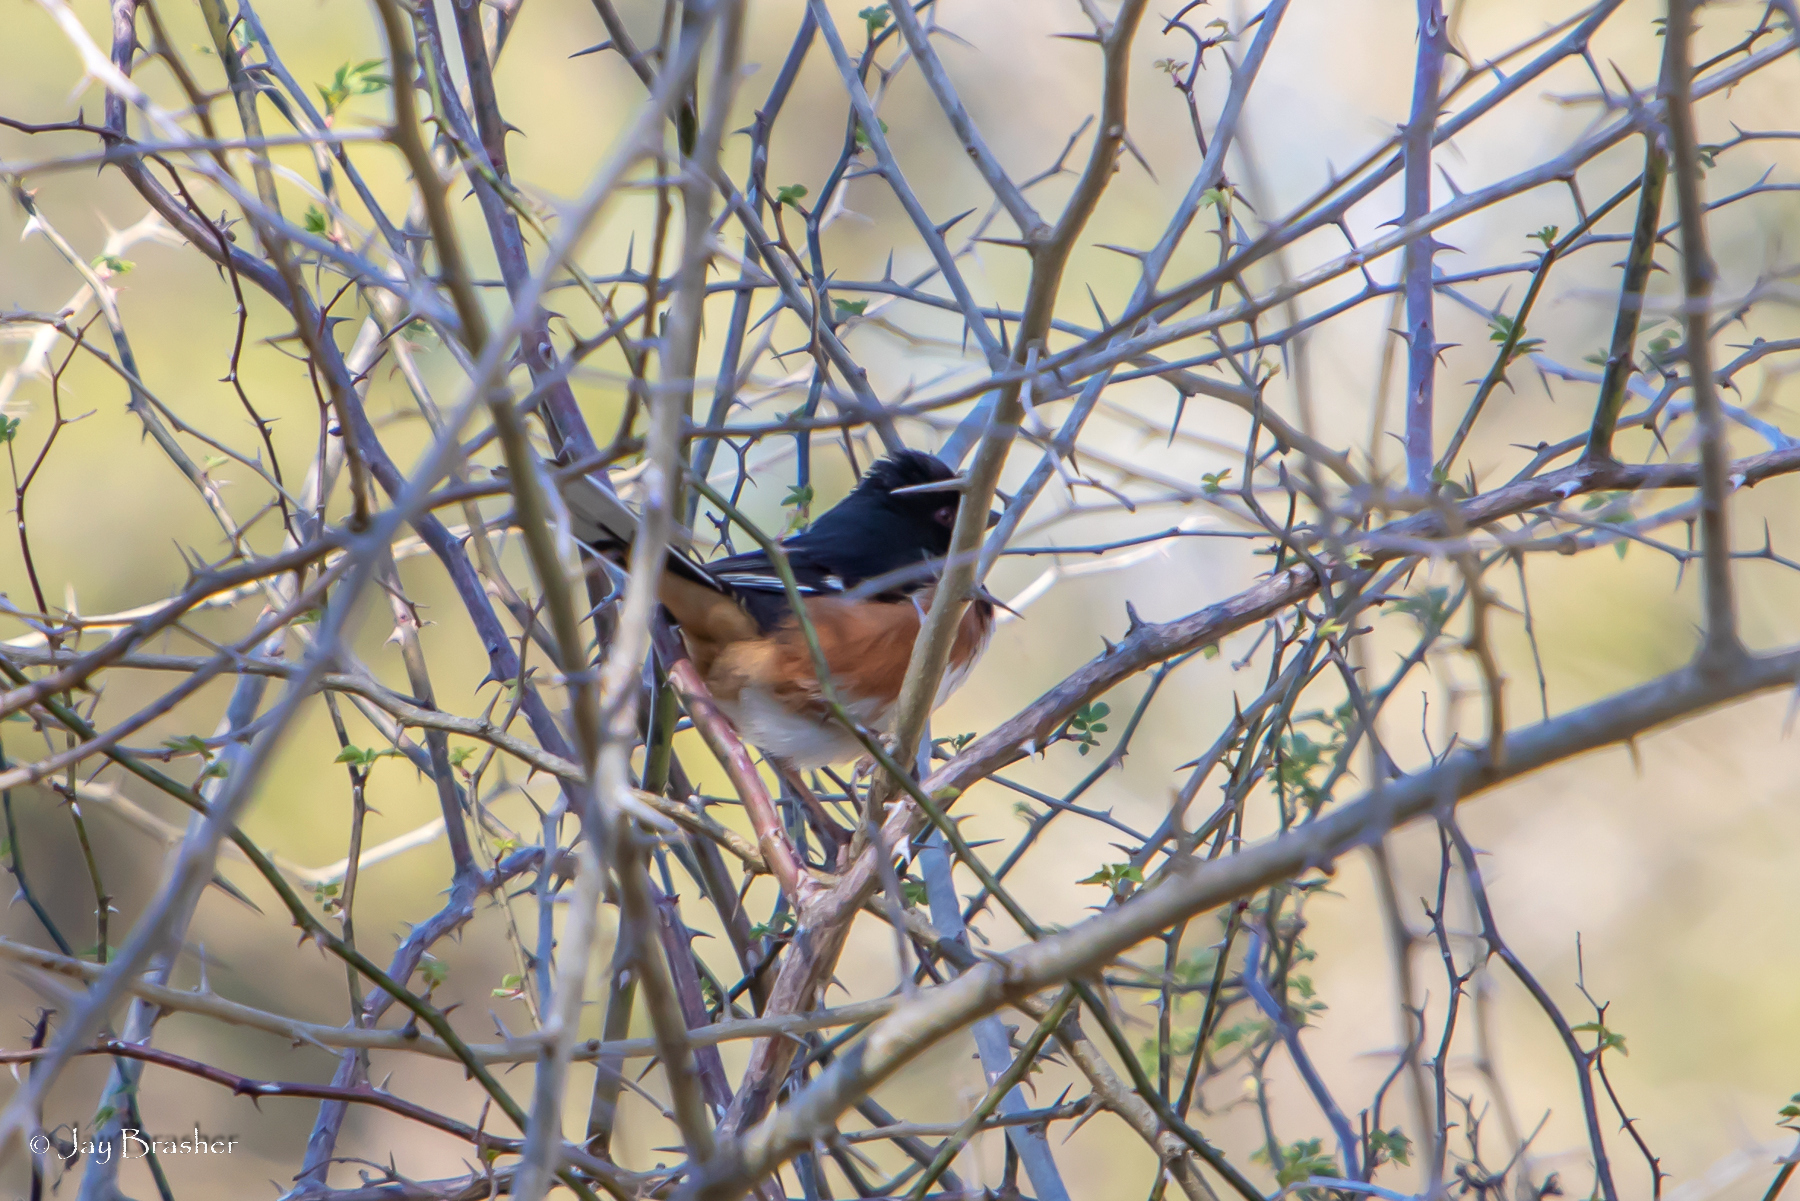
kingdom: Animalia
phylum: Chordata
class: Aves
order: Passeriformes
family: Passerellidae
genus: Pipilo
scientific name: Pipilo erythrophthalmus
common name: Eastern towhee
